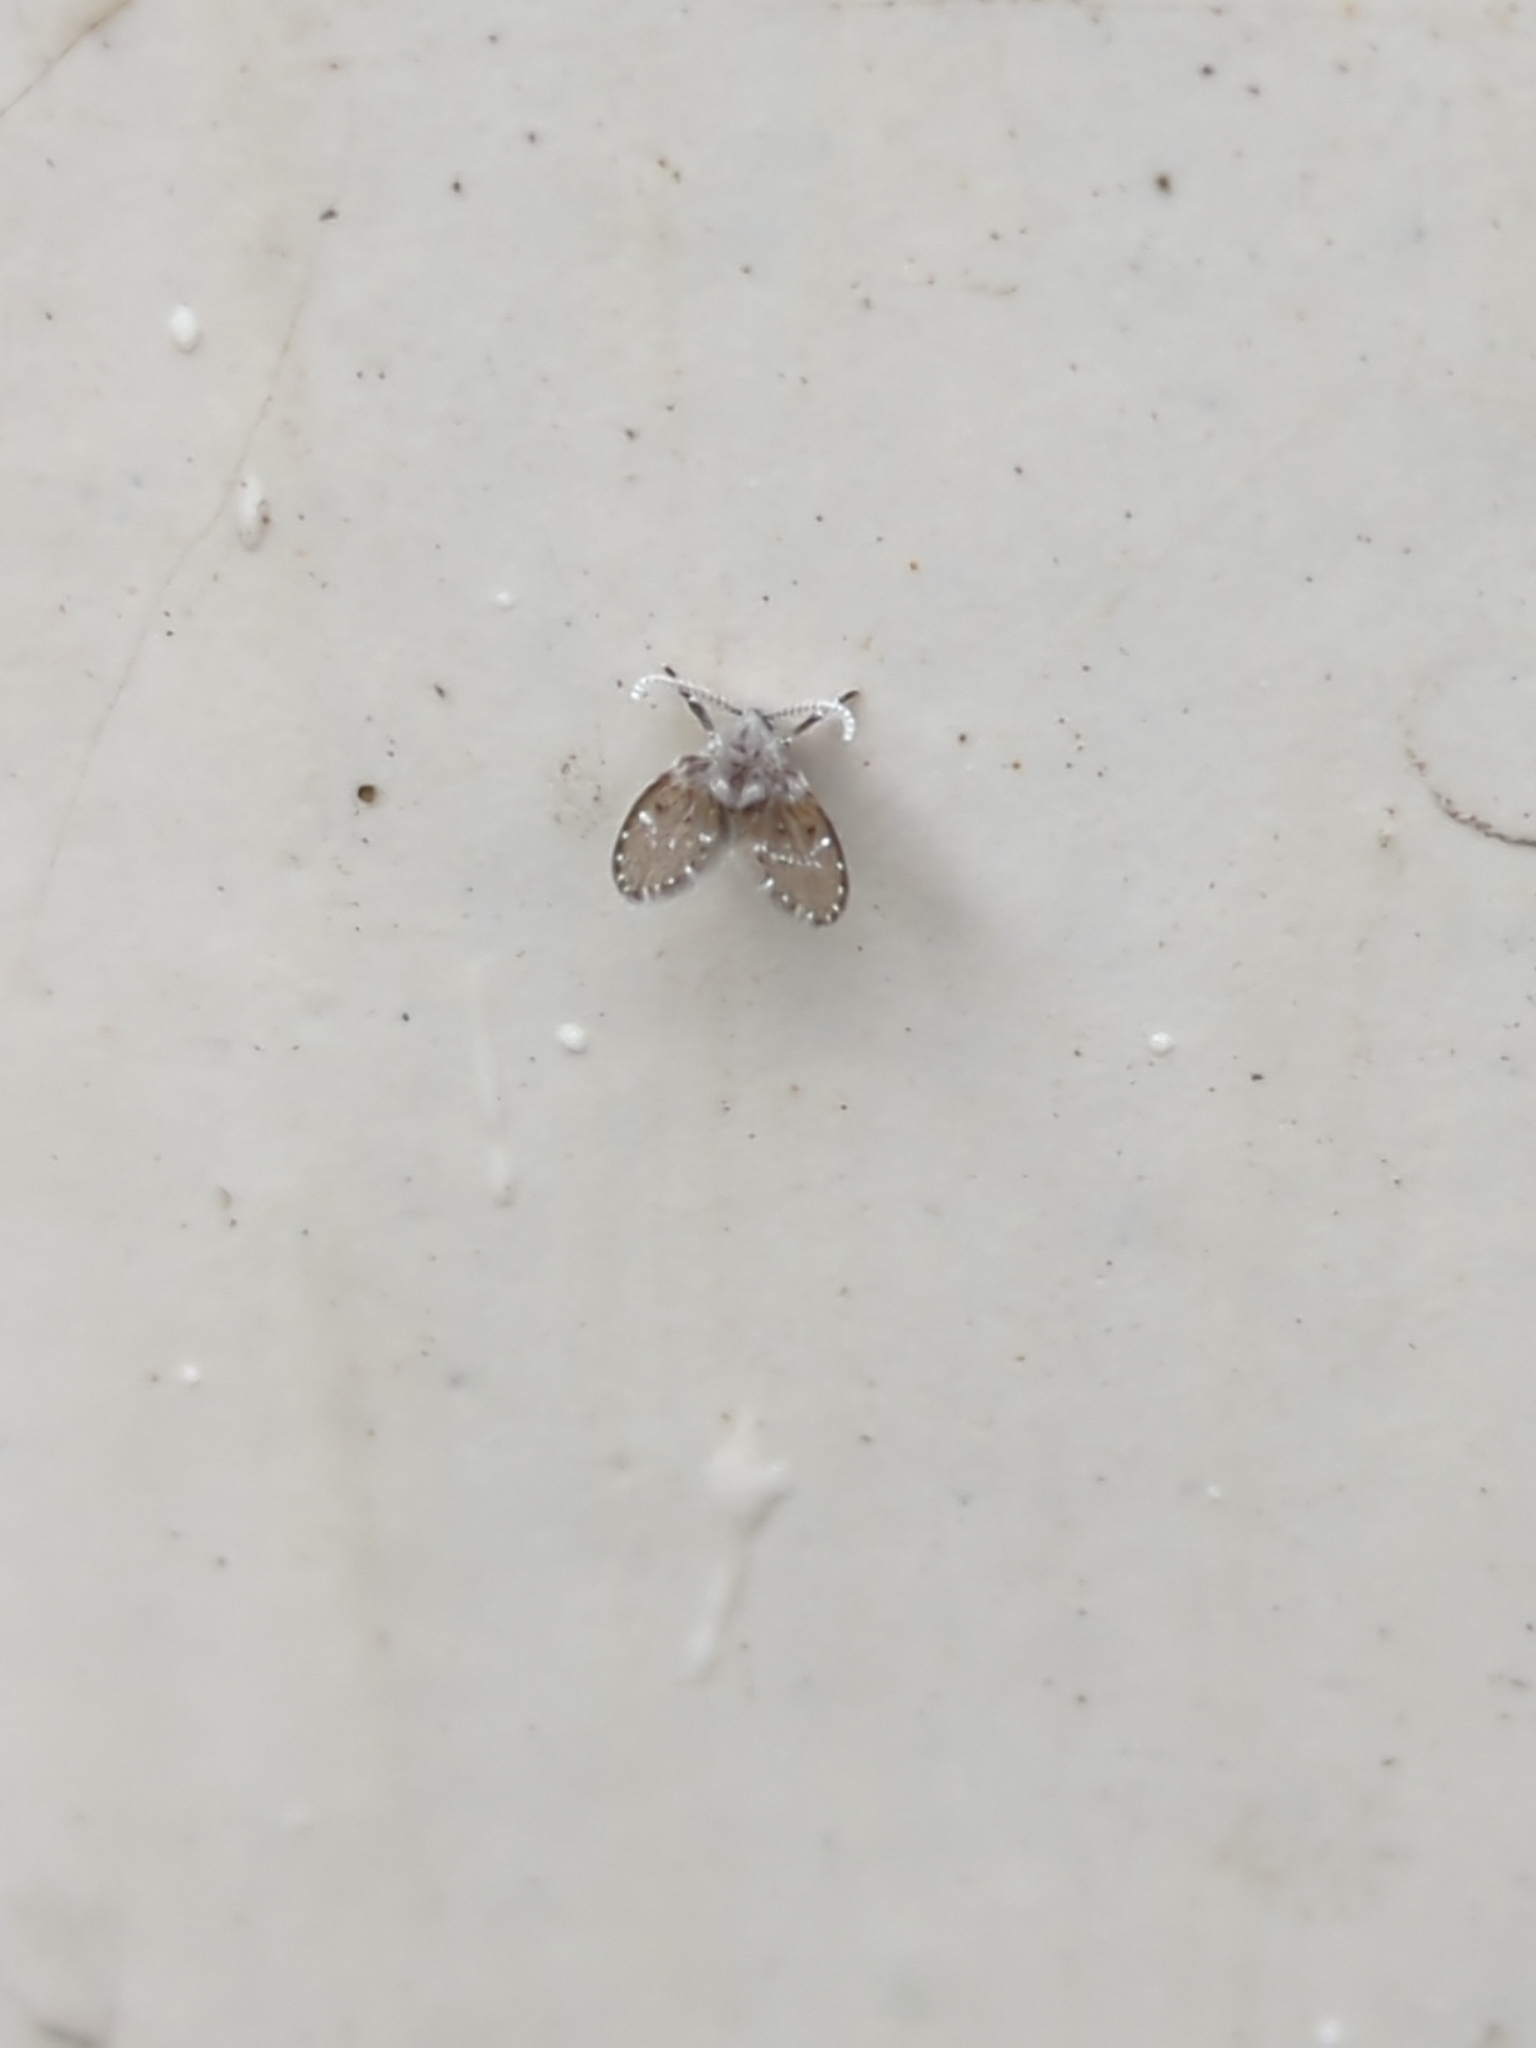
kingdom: Animalia
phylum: Arthropoda
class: Insecta
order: Diptera
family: Psychodidae
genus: Clogmia
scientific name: Clogmia albipunctatus
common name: White-spotted moth fly
